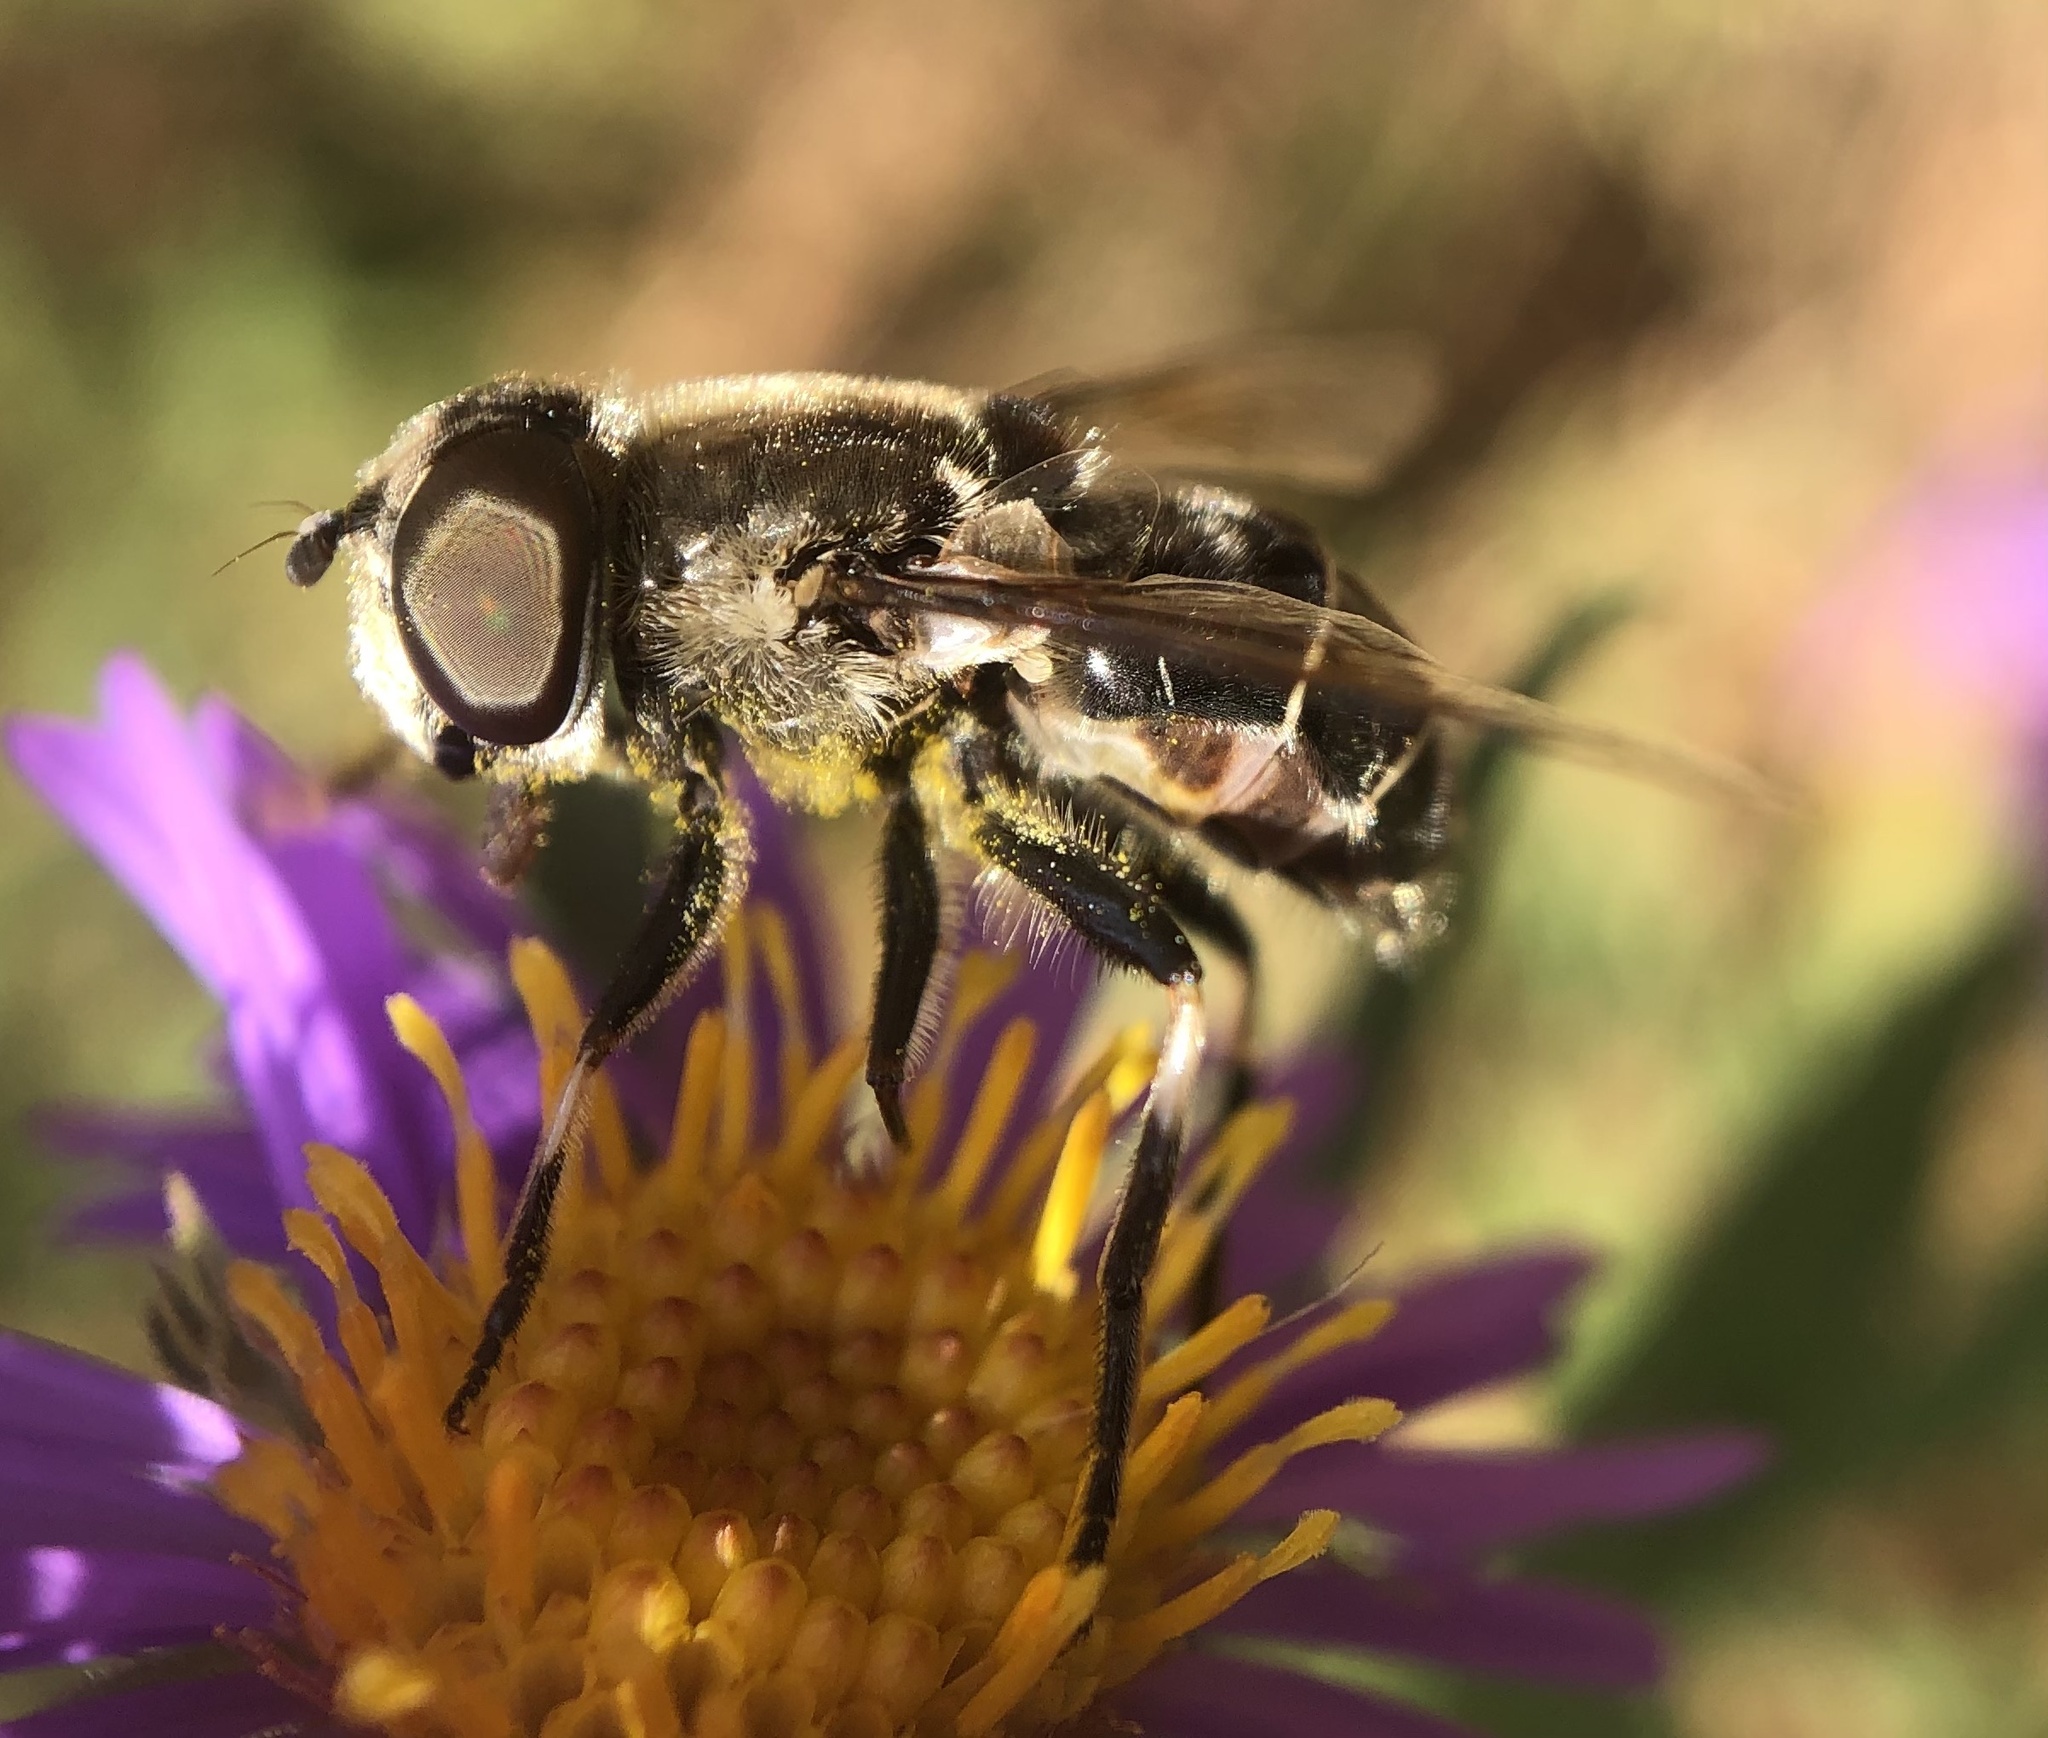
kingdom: Animalia
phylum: Arthropoda
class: Insecta
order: Diptera
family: Syrphidae
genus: Eristalis
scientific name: Eristalis dimidiata
